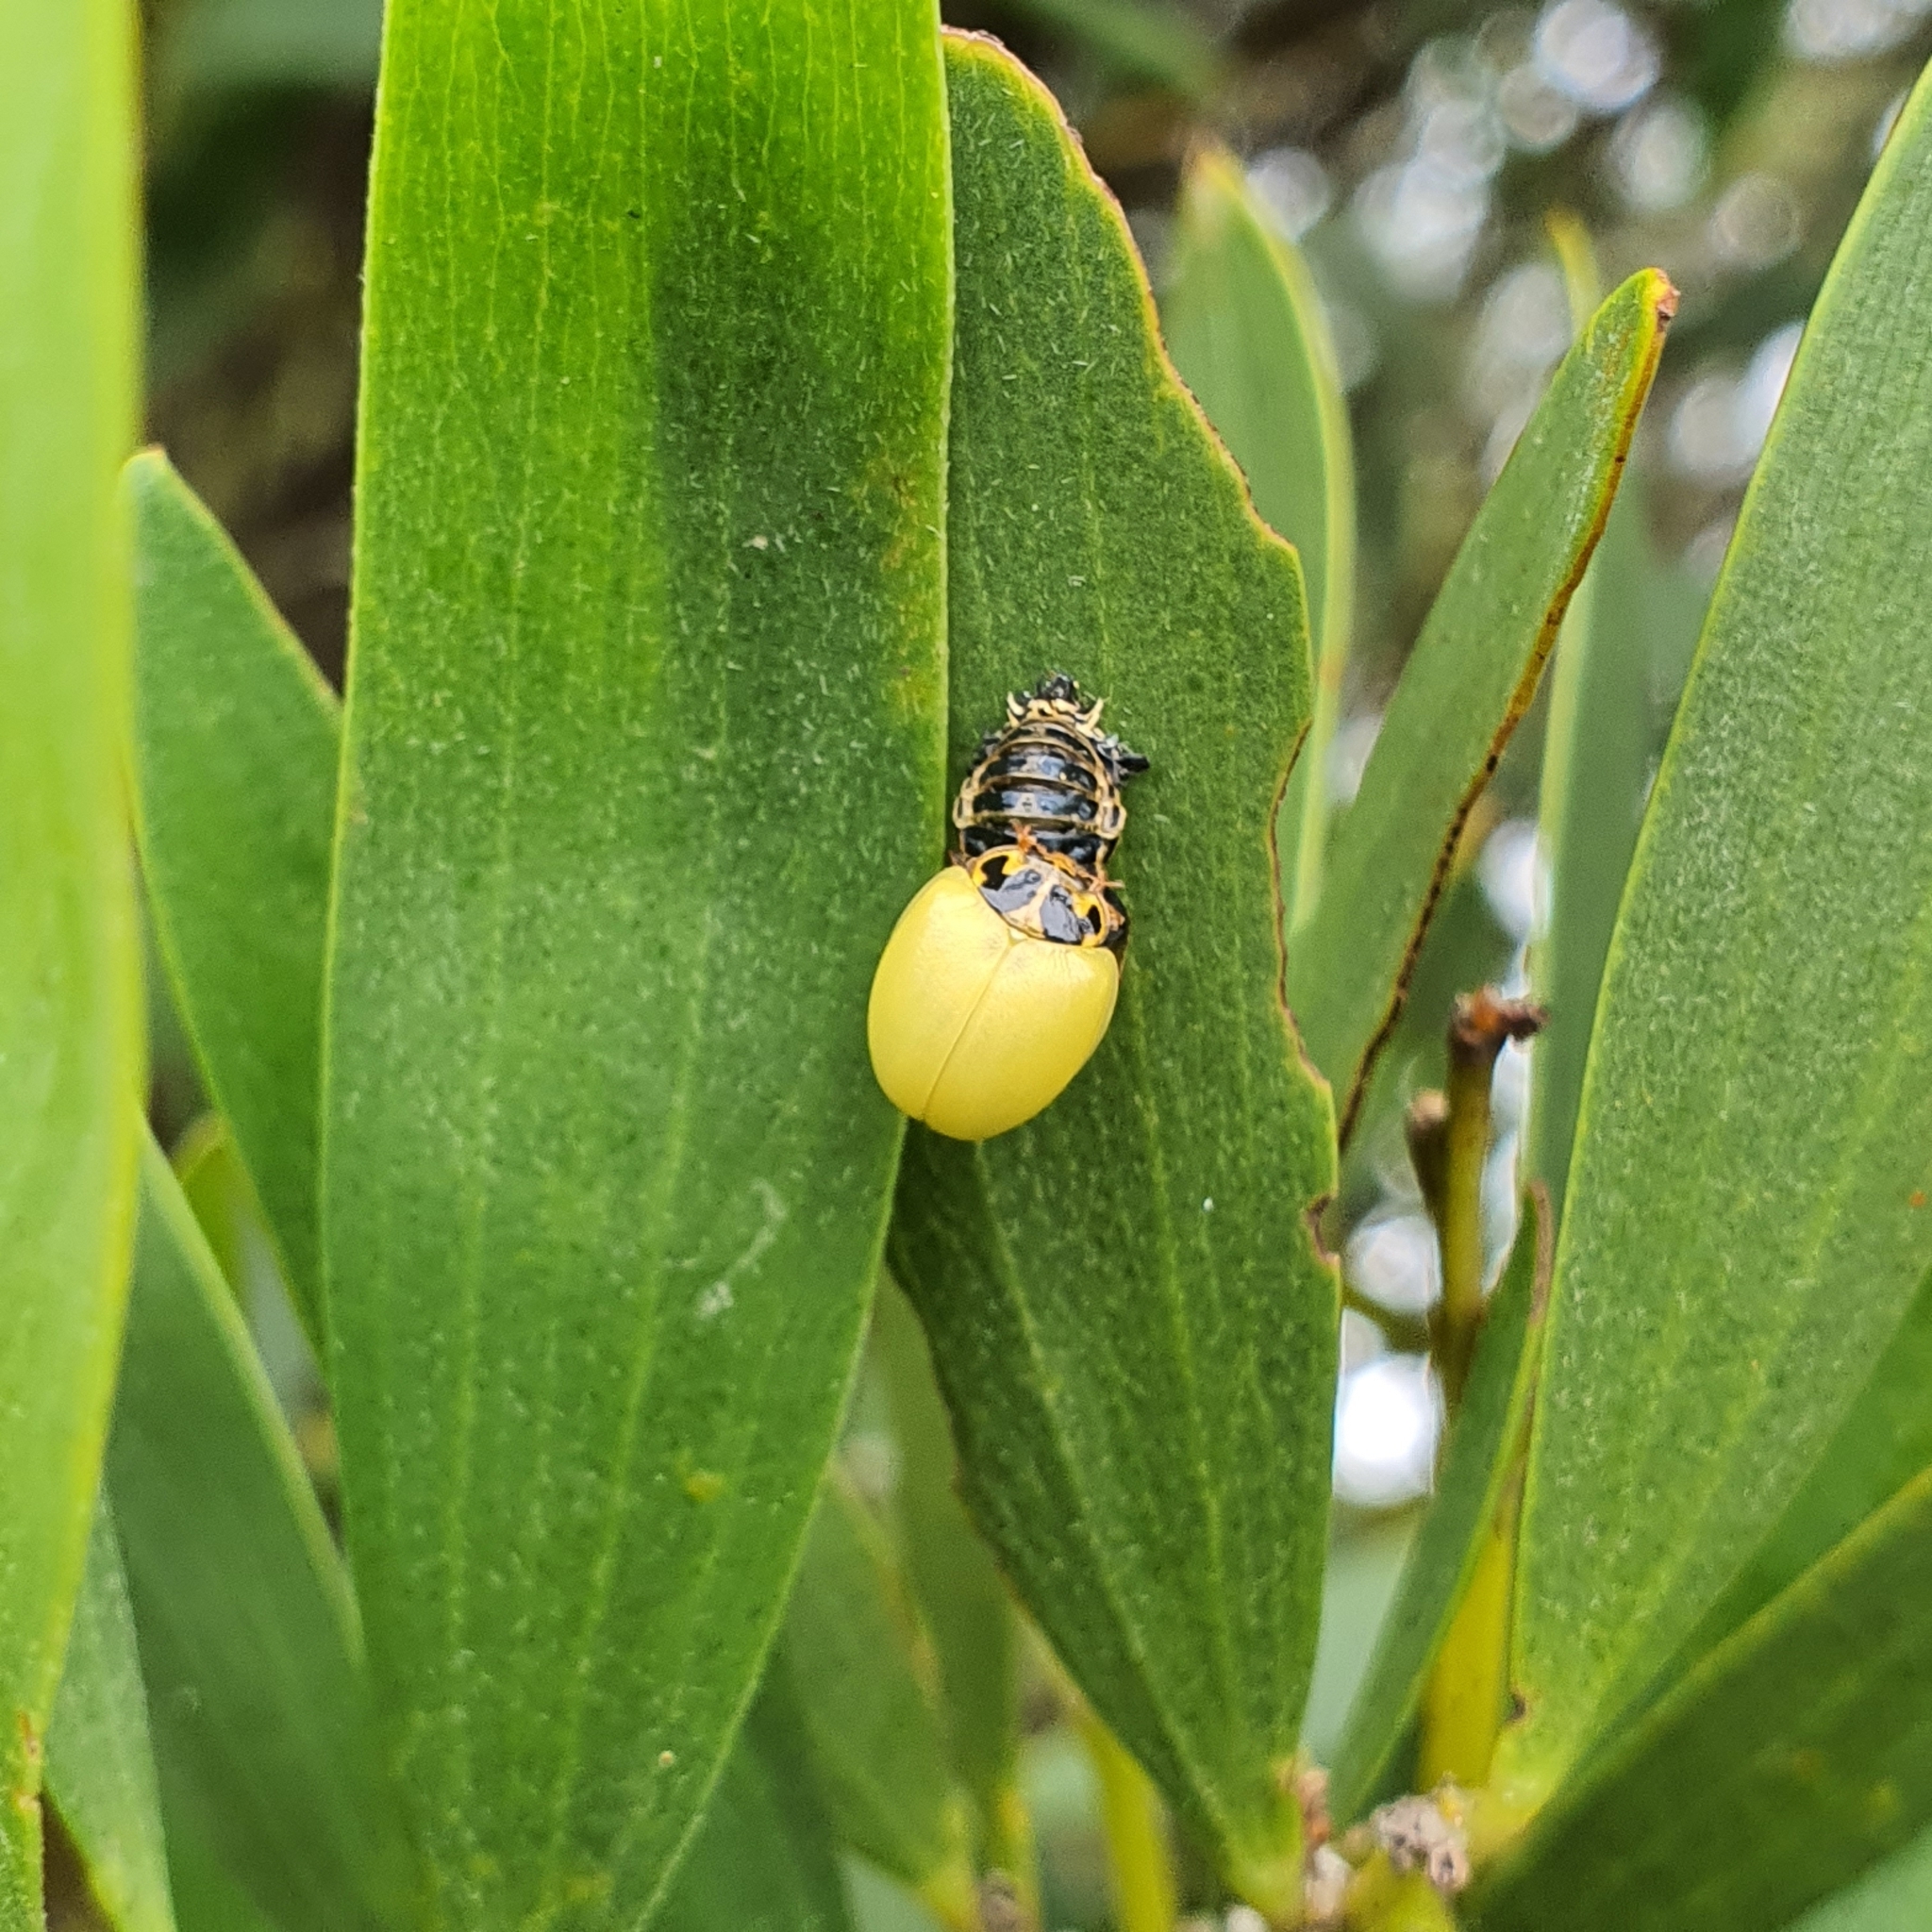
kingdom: Animalia
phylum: Arthropoda
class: Insecta
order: Coleoptera
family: Coccinellidae
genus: Harmonia
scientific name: Harmonia conformis
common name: Common spotted ladybird beetle
